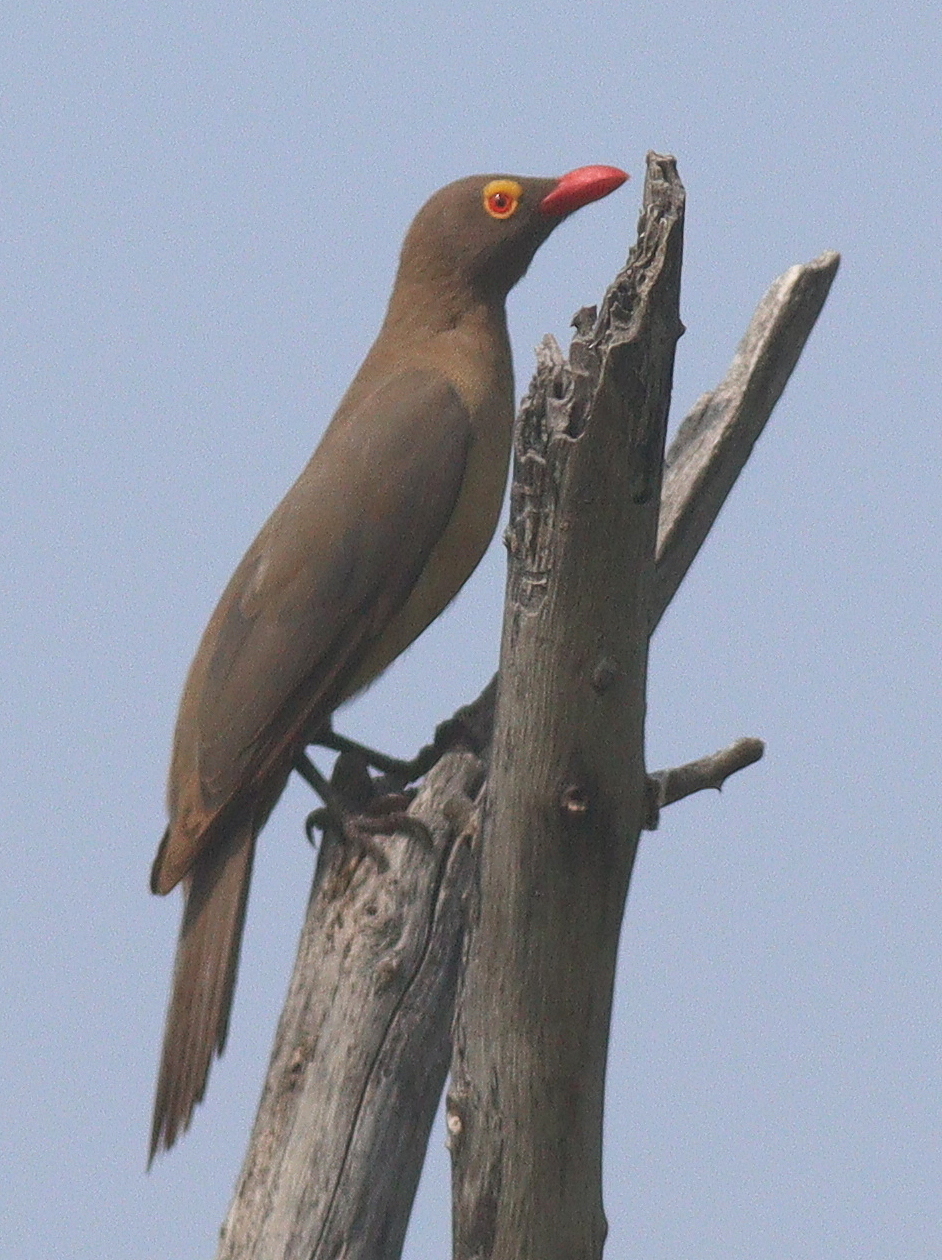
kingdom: Animalia
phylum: Chordata
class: Aves
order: Passeriformes
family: Buphagidae
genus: Buphagus
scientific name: Buphagus erythrorhynchus
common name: Red-billed oxpecker
